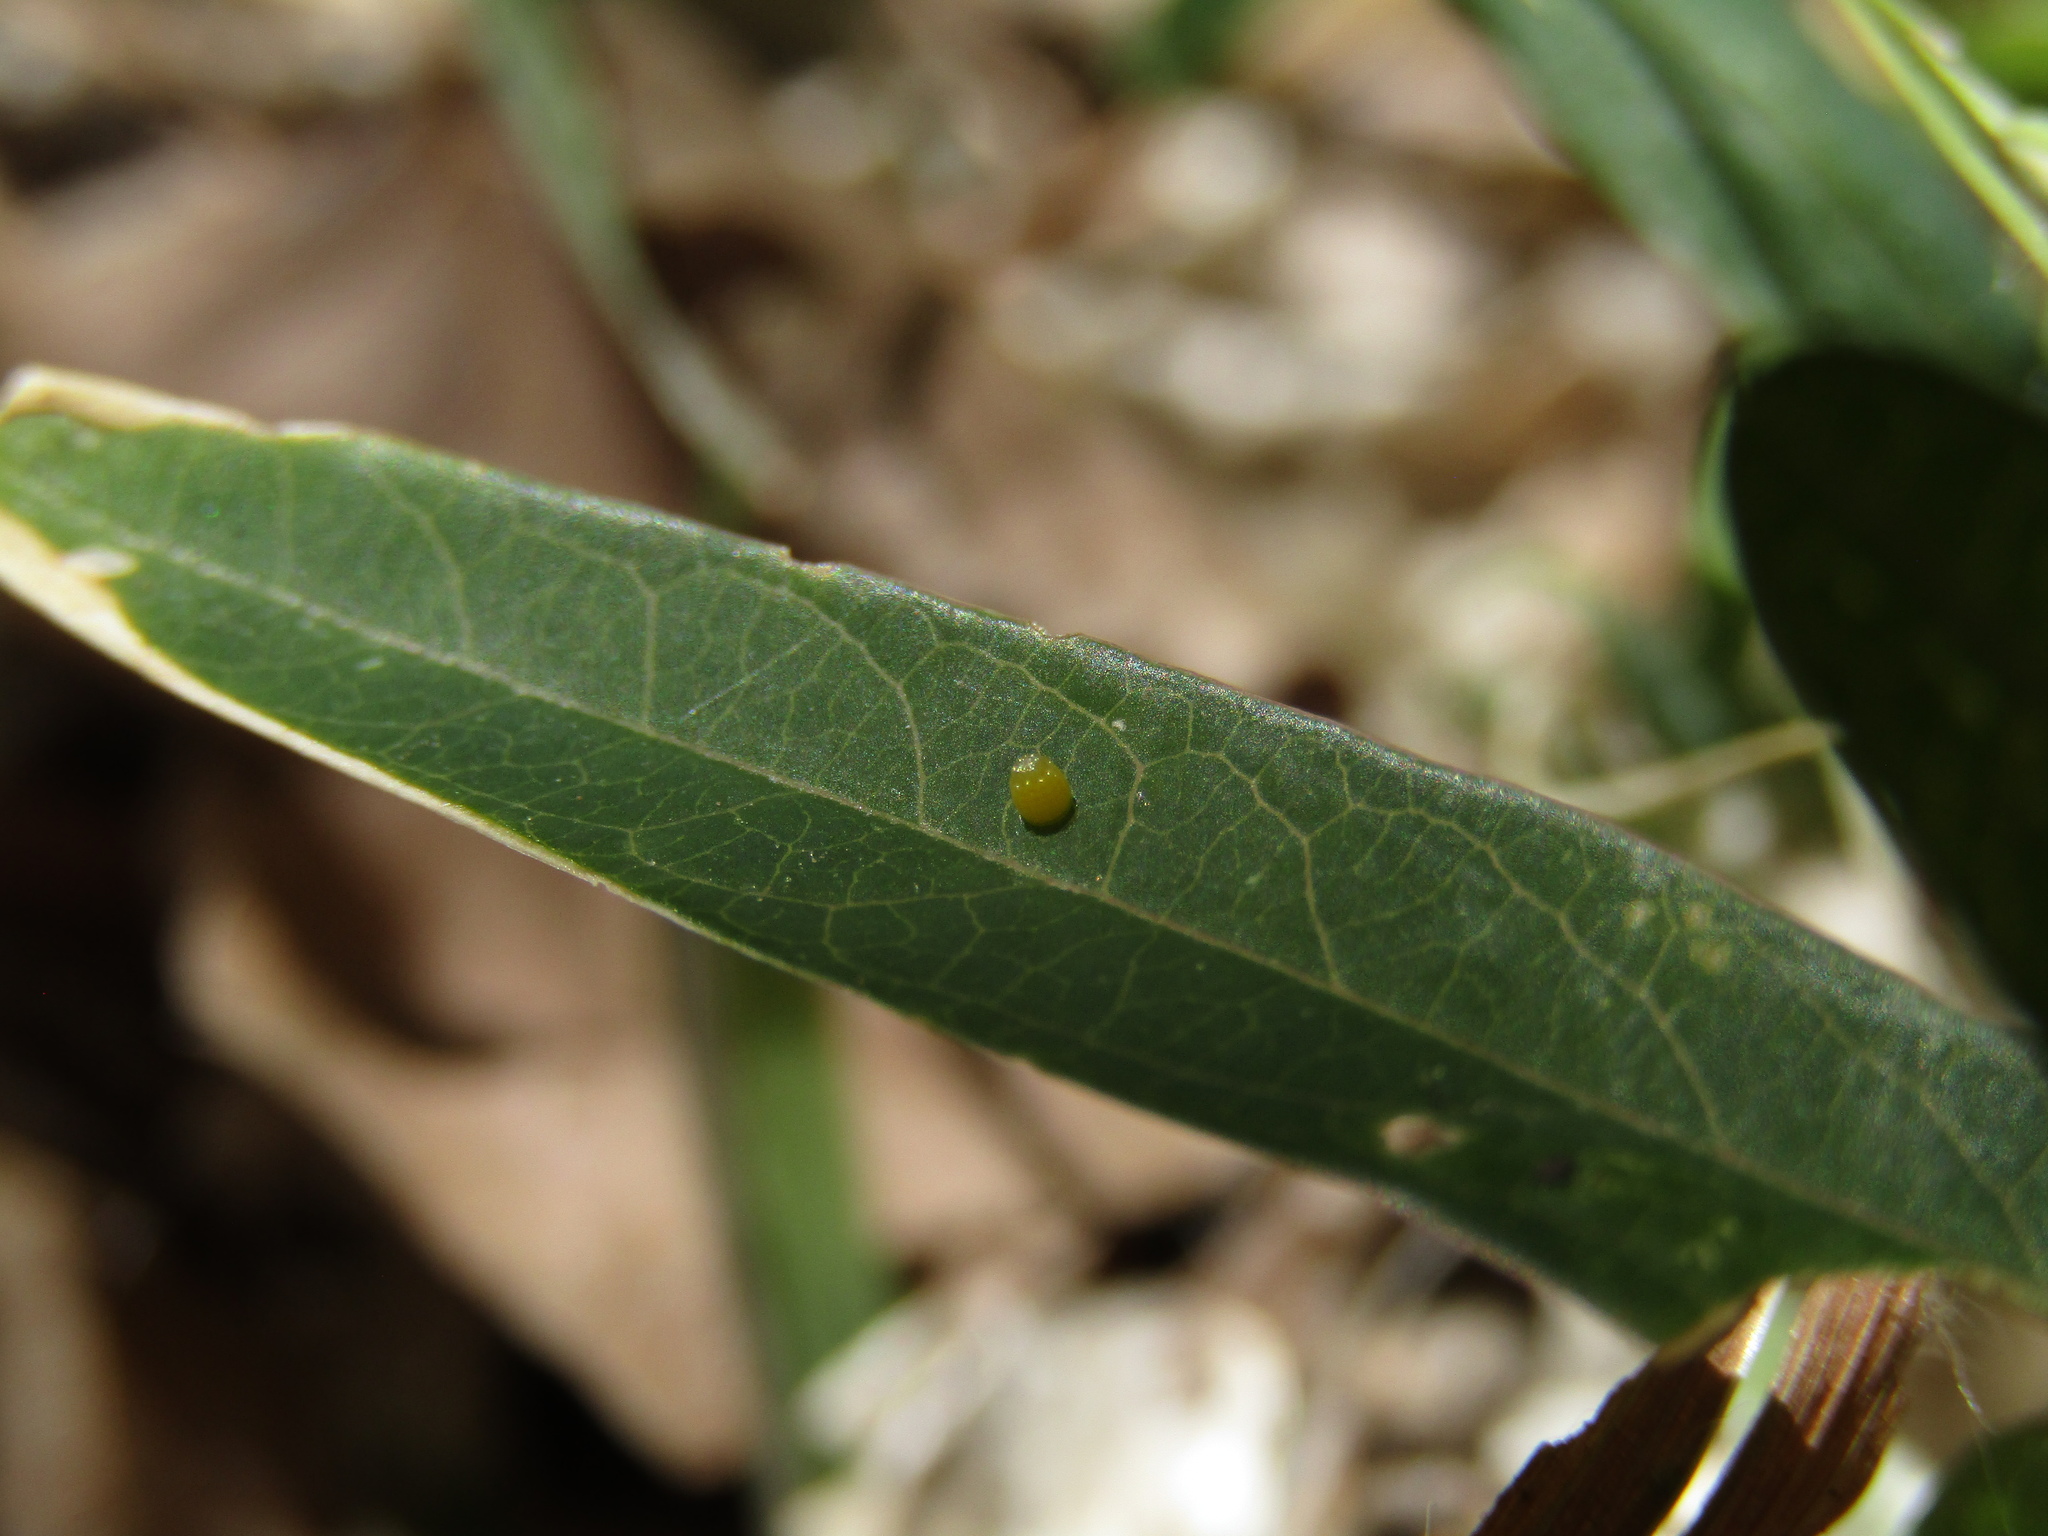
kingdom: Animalia
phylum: Arthropoda
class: Insecta
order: Lepidoptera
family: Nymphalidae
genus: Dione
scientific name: Dione vanillae
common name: Gulf fritillary
